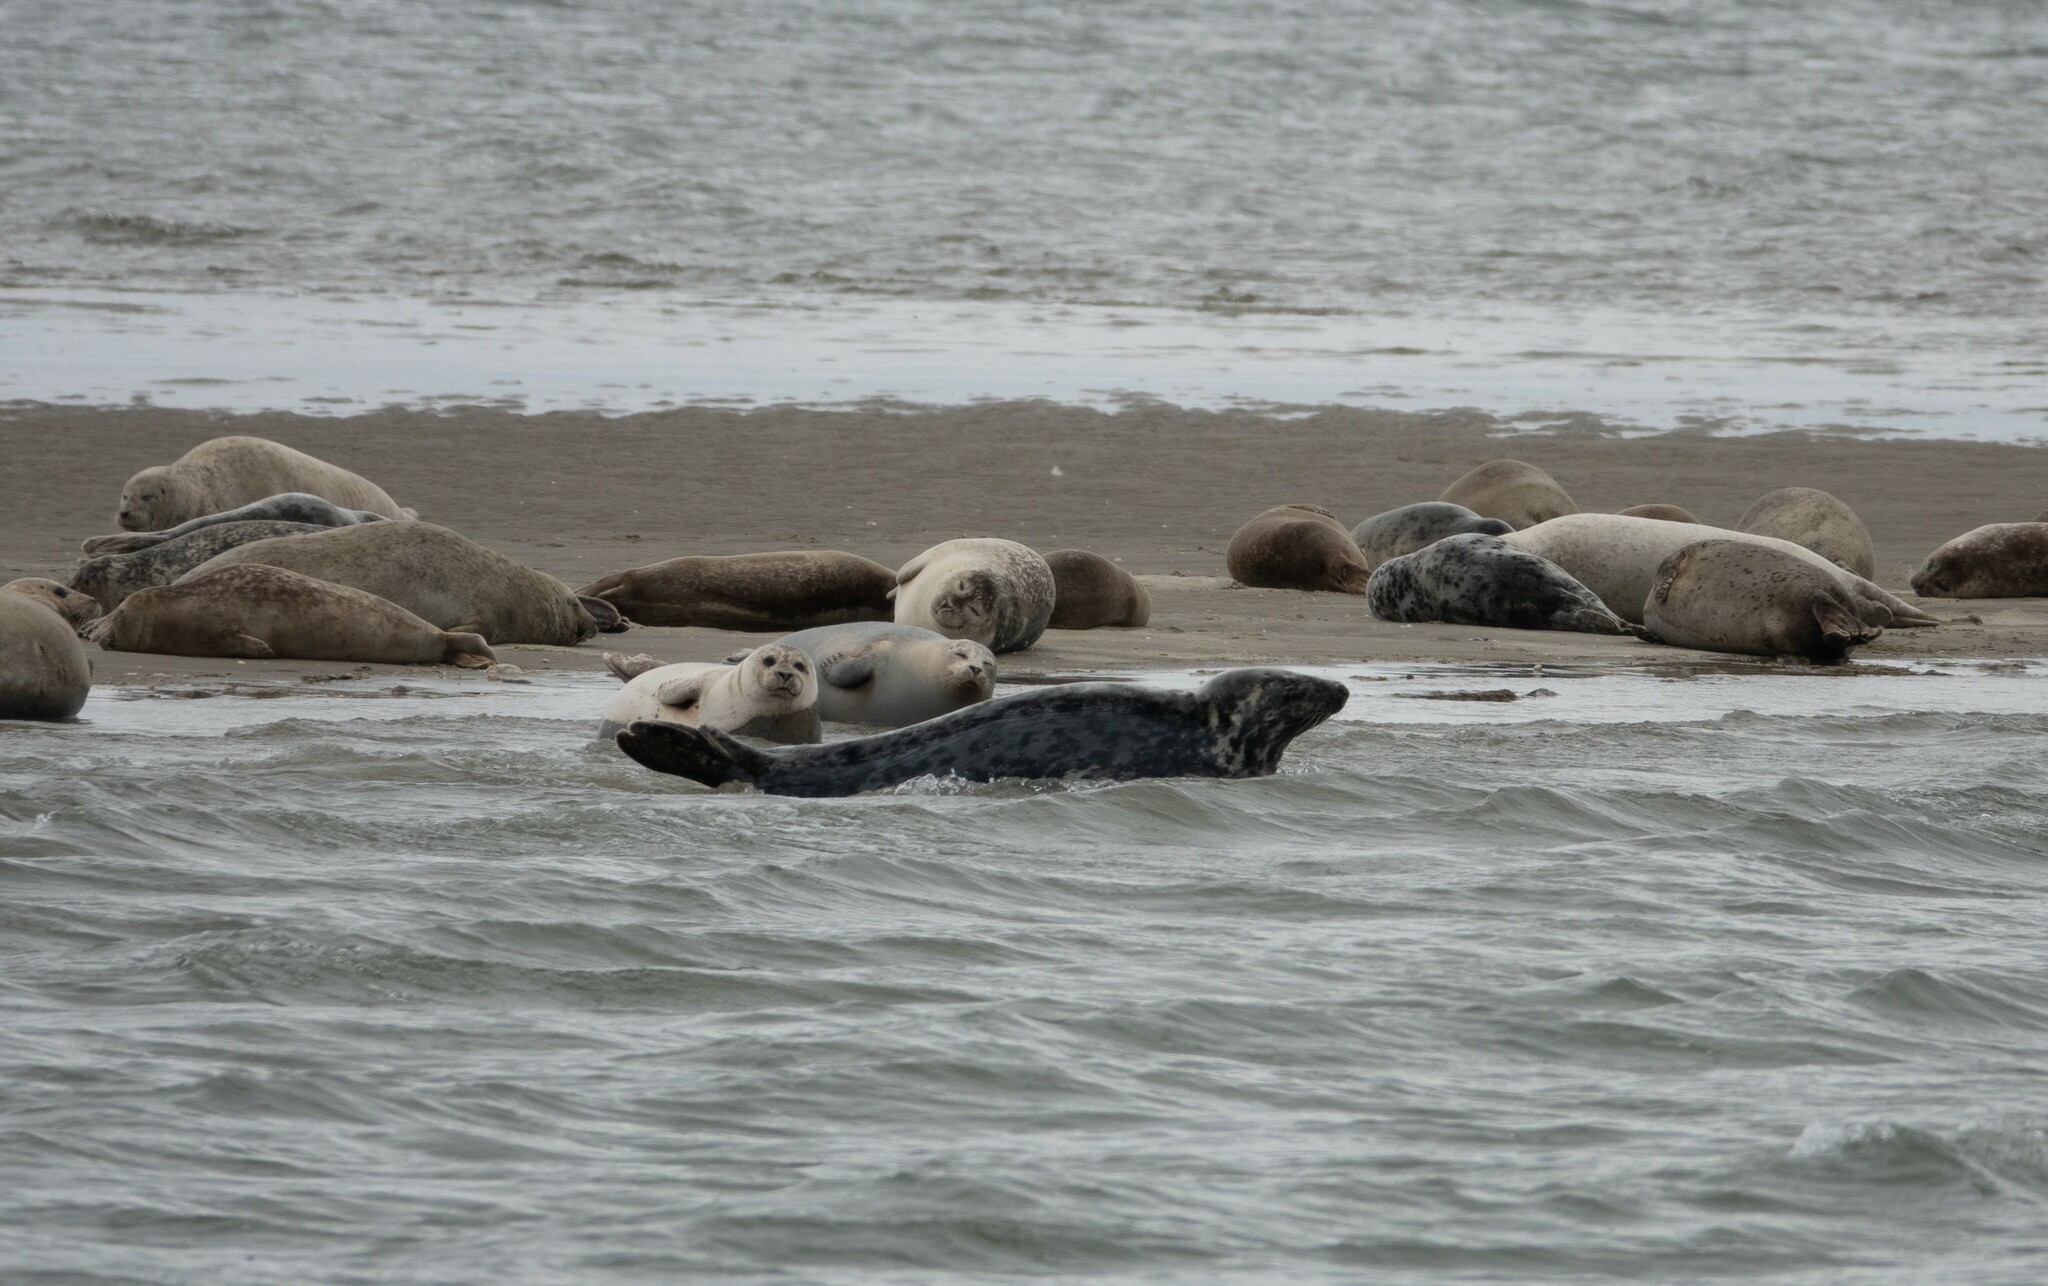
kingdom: Animalia
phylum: Chordata
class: Mammalia
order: Carnivora
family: Phocidae
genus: Halichoerus
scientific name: Halichoerus grypus
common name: Grey seal
